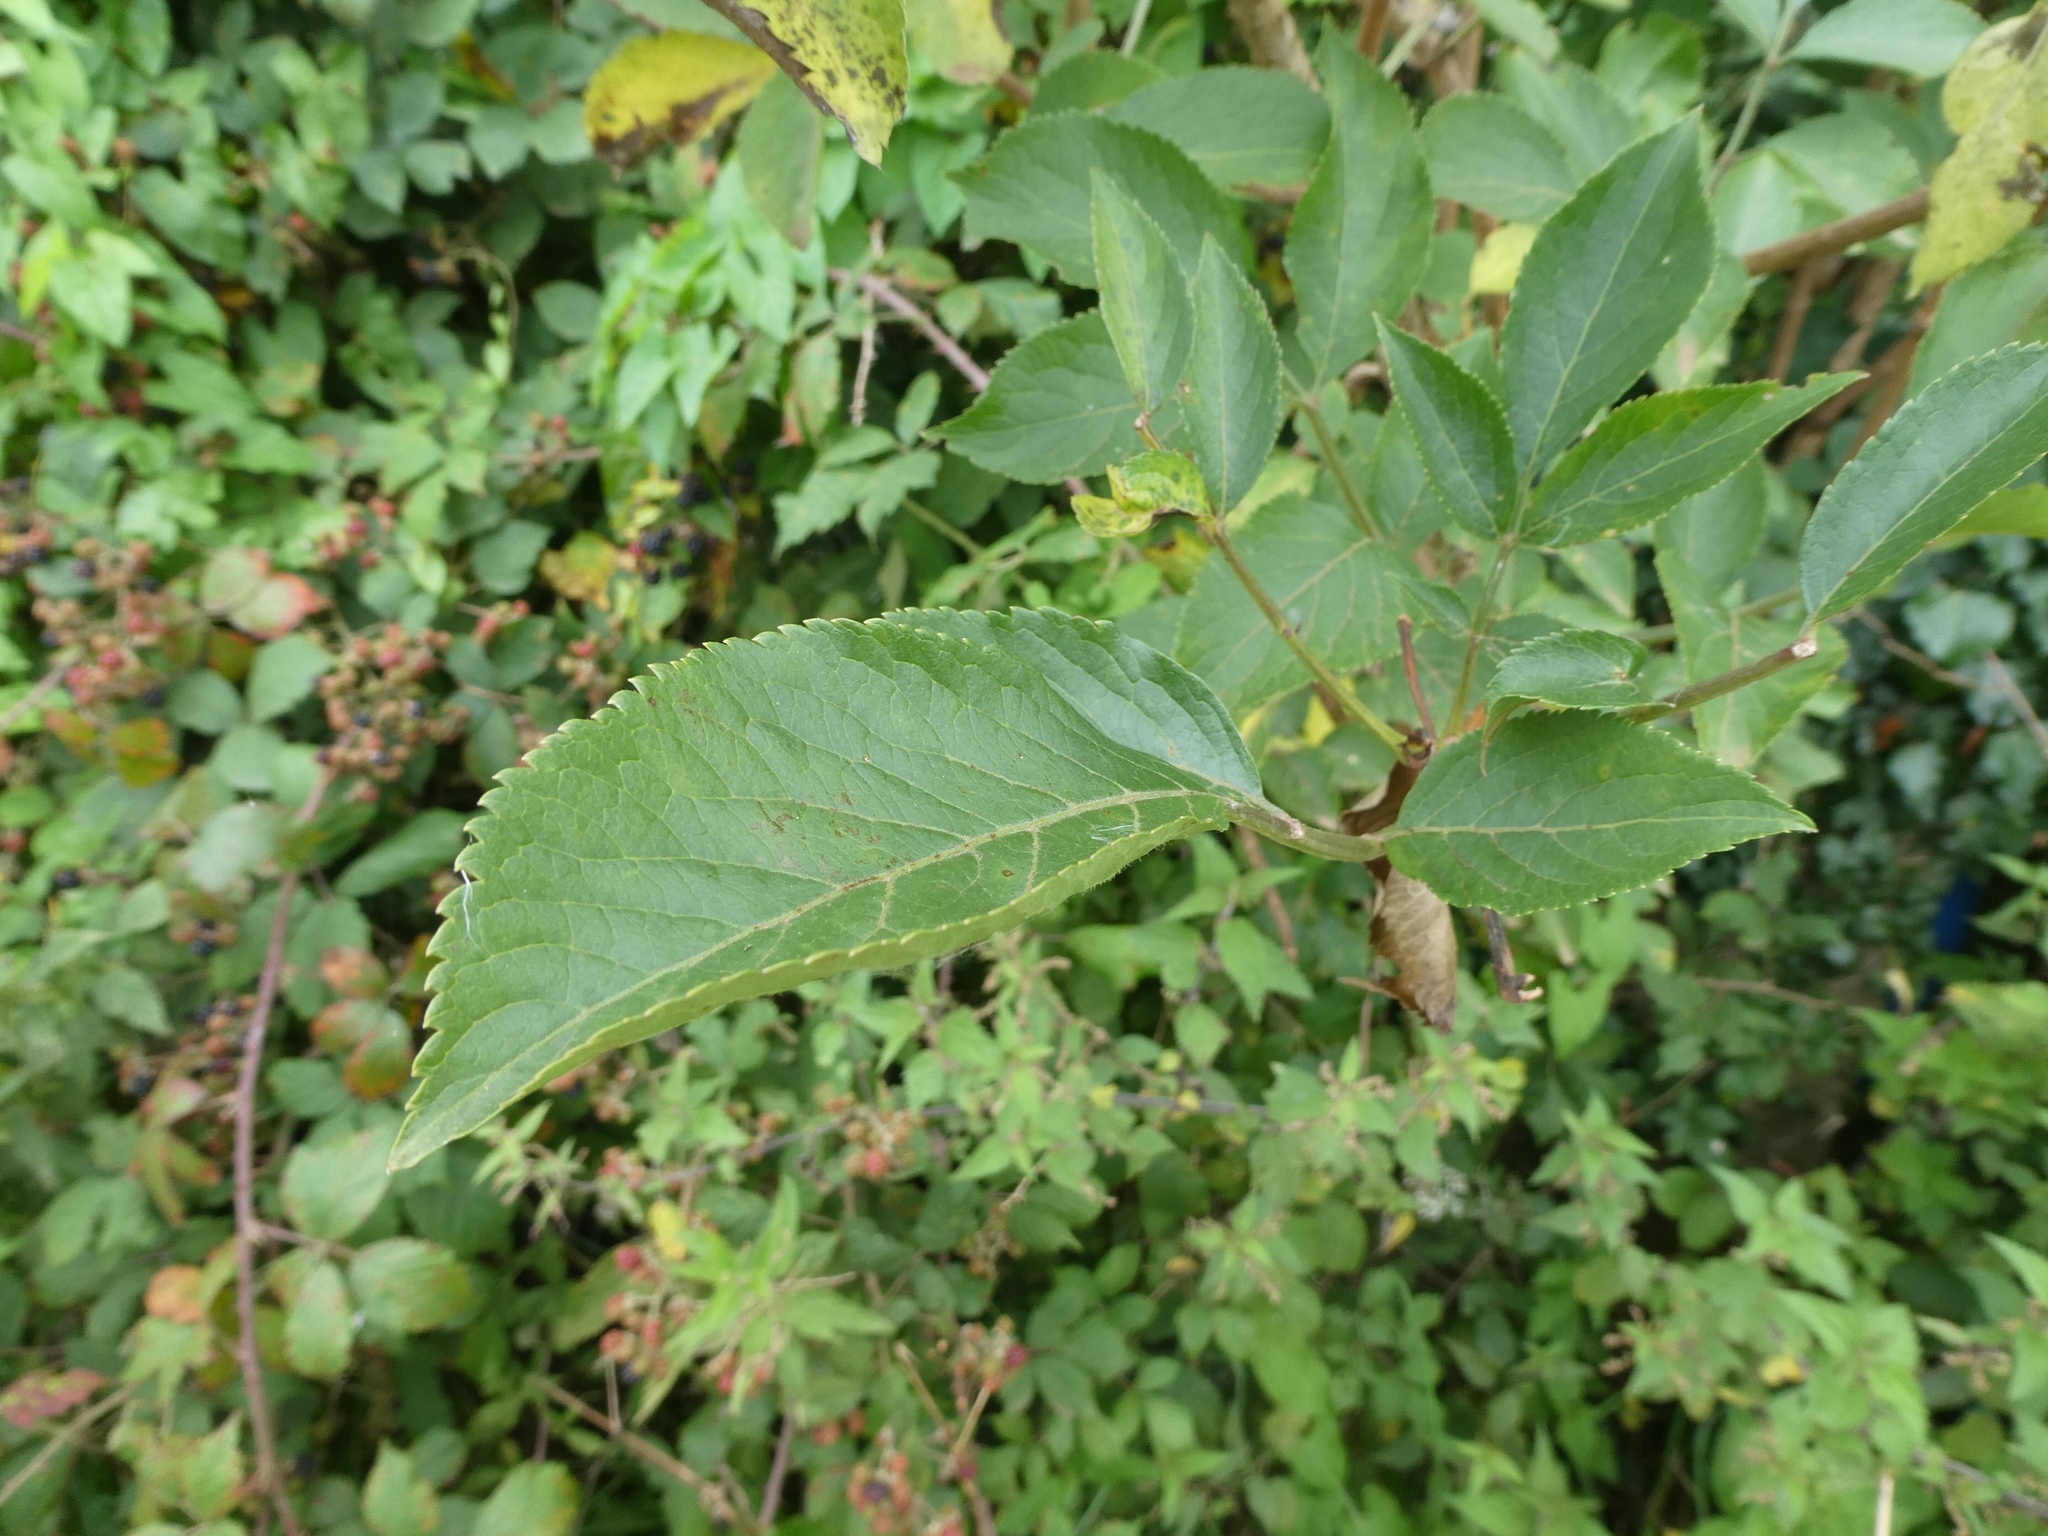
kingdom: Plantae
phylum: Tracheophyta
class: Magnoliopsida
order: Dipsacales
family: Viburnaceae
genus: Sambucus
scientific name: Sambucus nigra
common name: Elder
